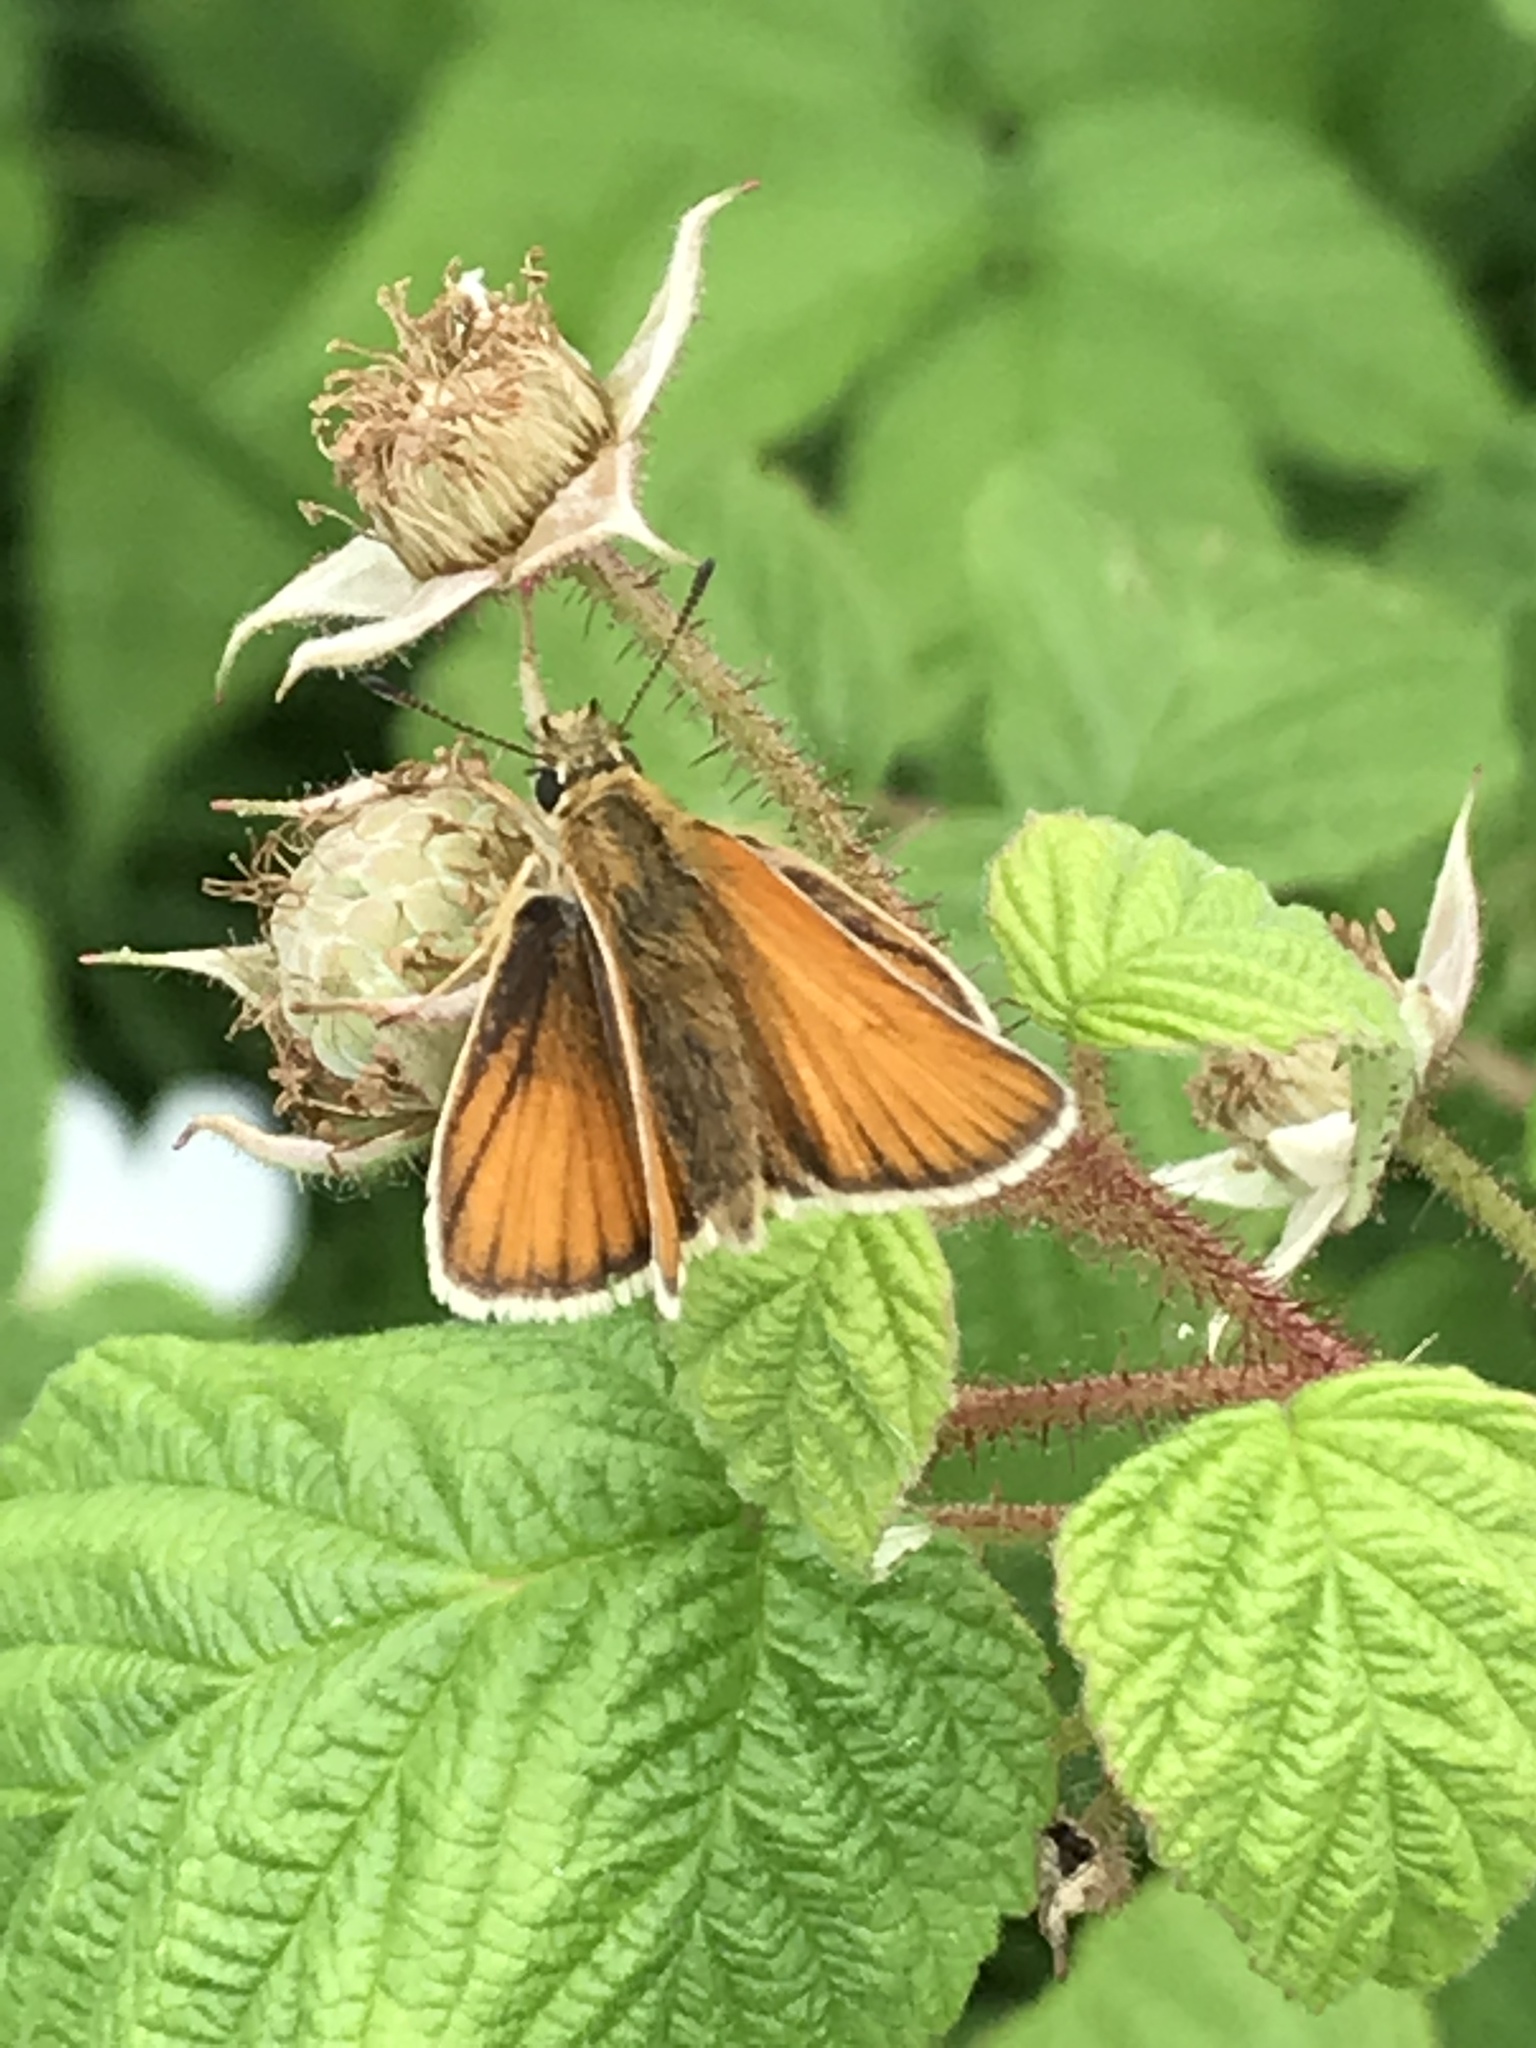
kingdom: Animalia
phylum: Arthropoda
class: Insecta
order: Lepidoptera
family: Hesperiidae
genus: Thymelicus
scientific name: Thymelicus lineola
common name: Essex skipper
